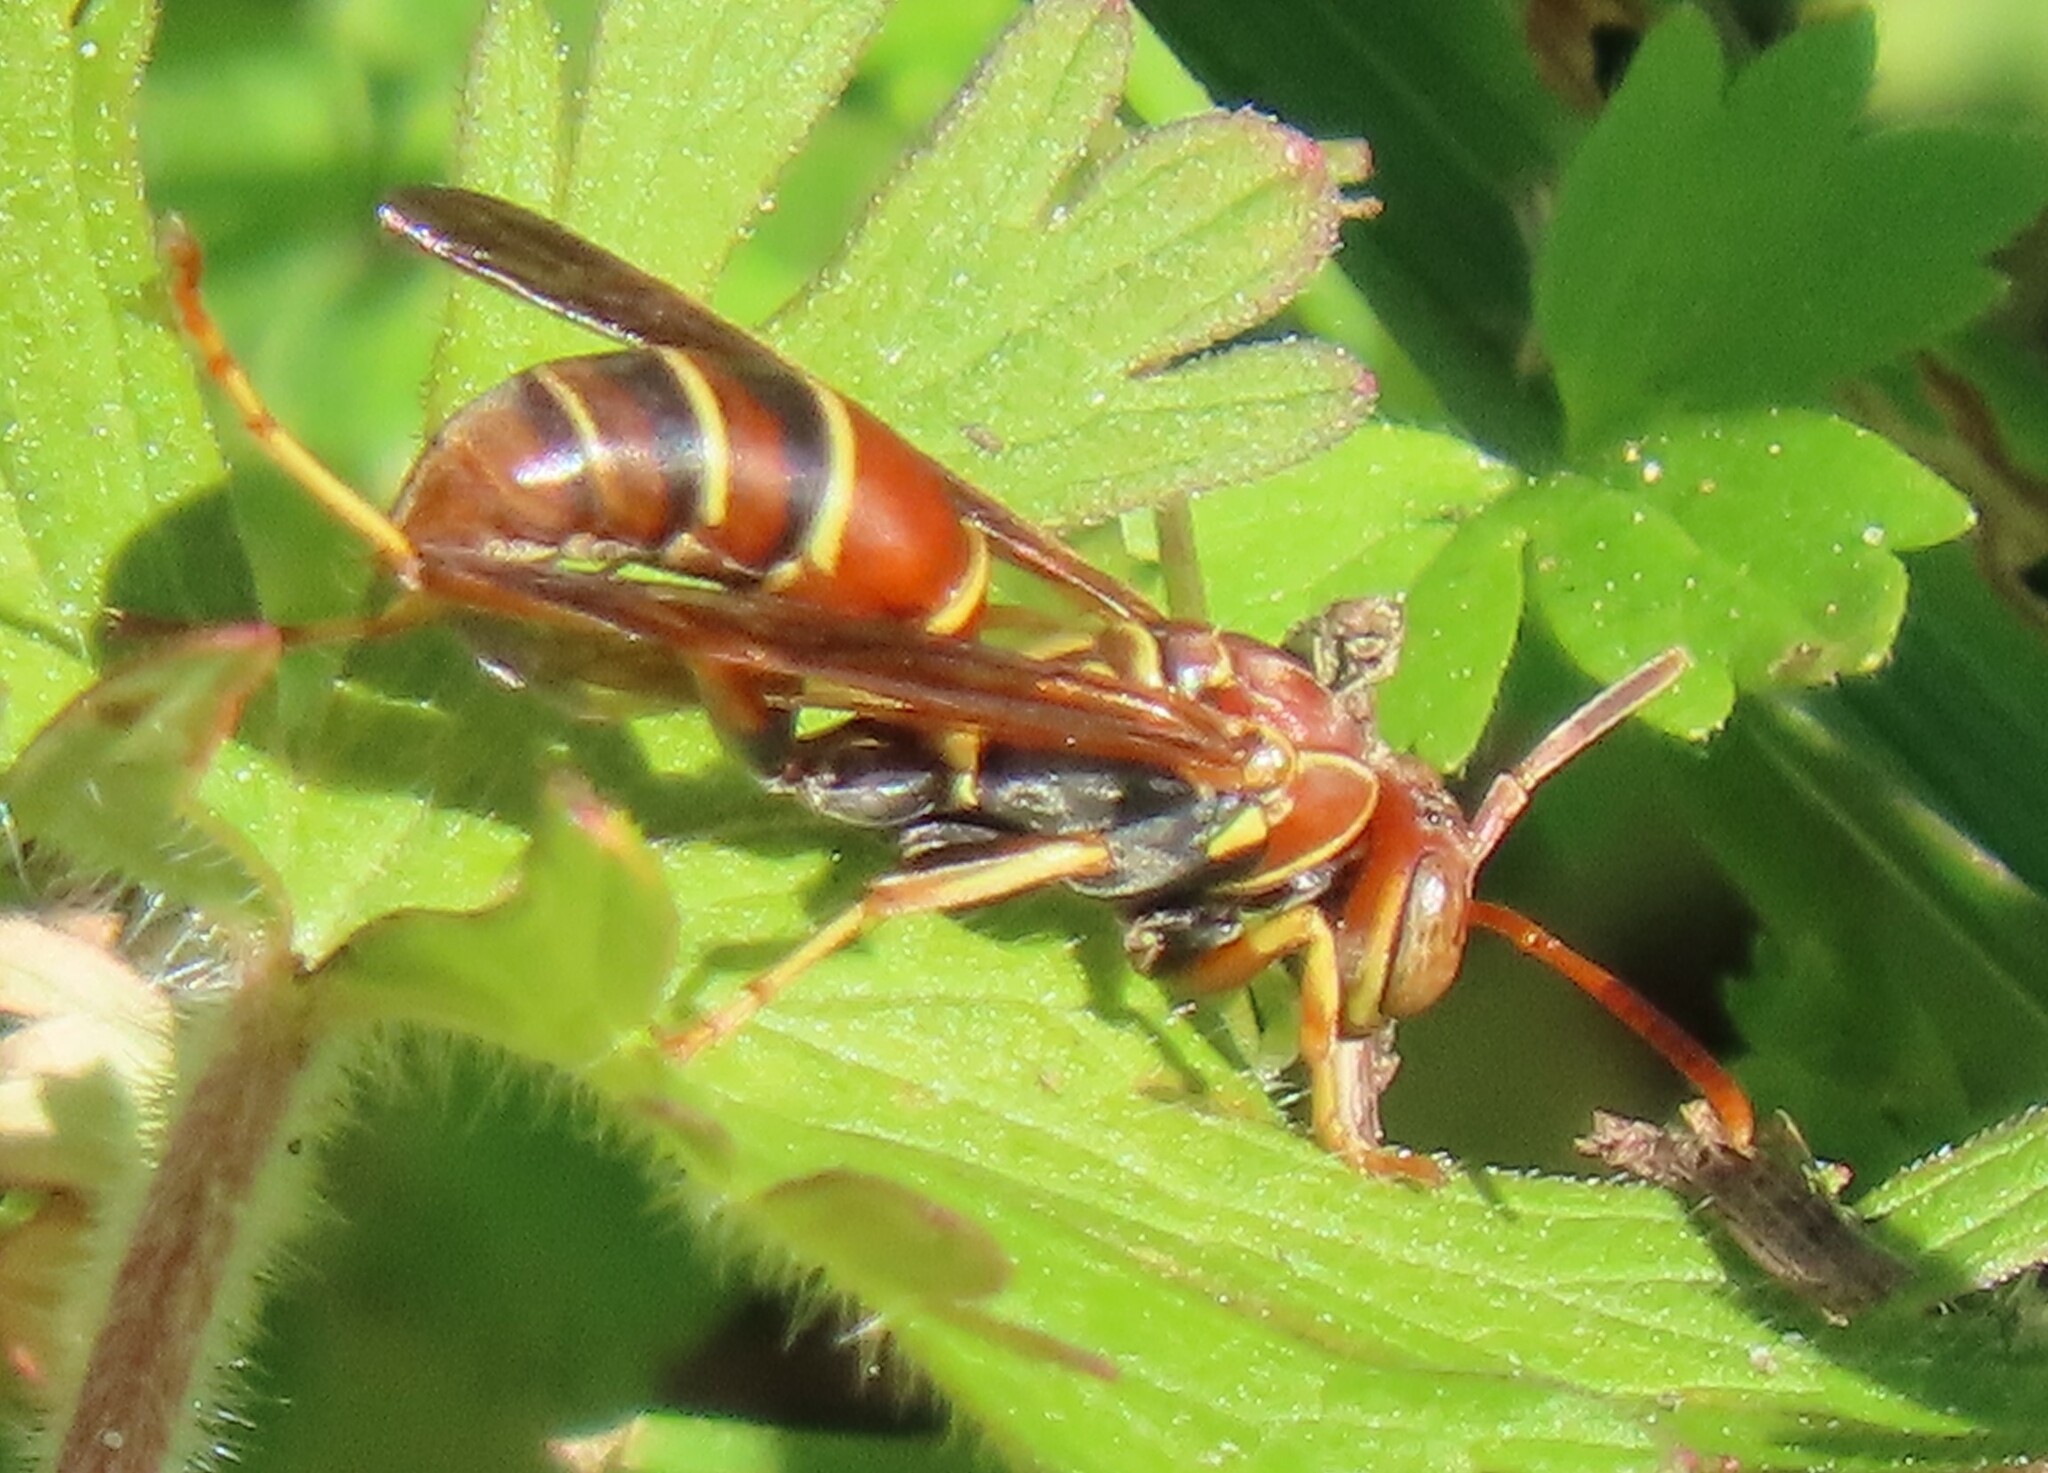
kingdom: Animalia
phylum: Arthropoda
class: Insecta
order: Hymenoptera
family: Eumenidae
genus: Polistes
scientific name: Polistes dorsalis
